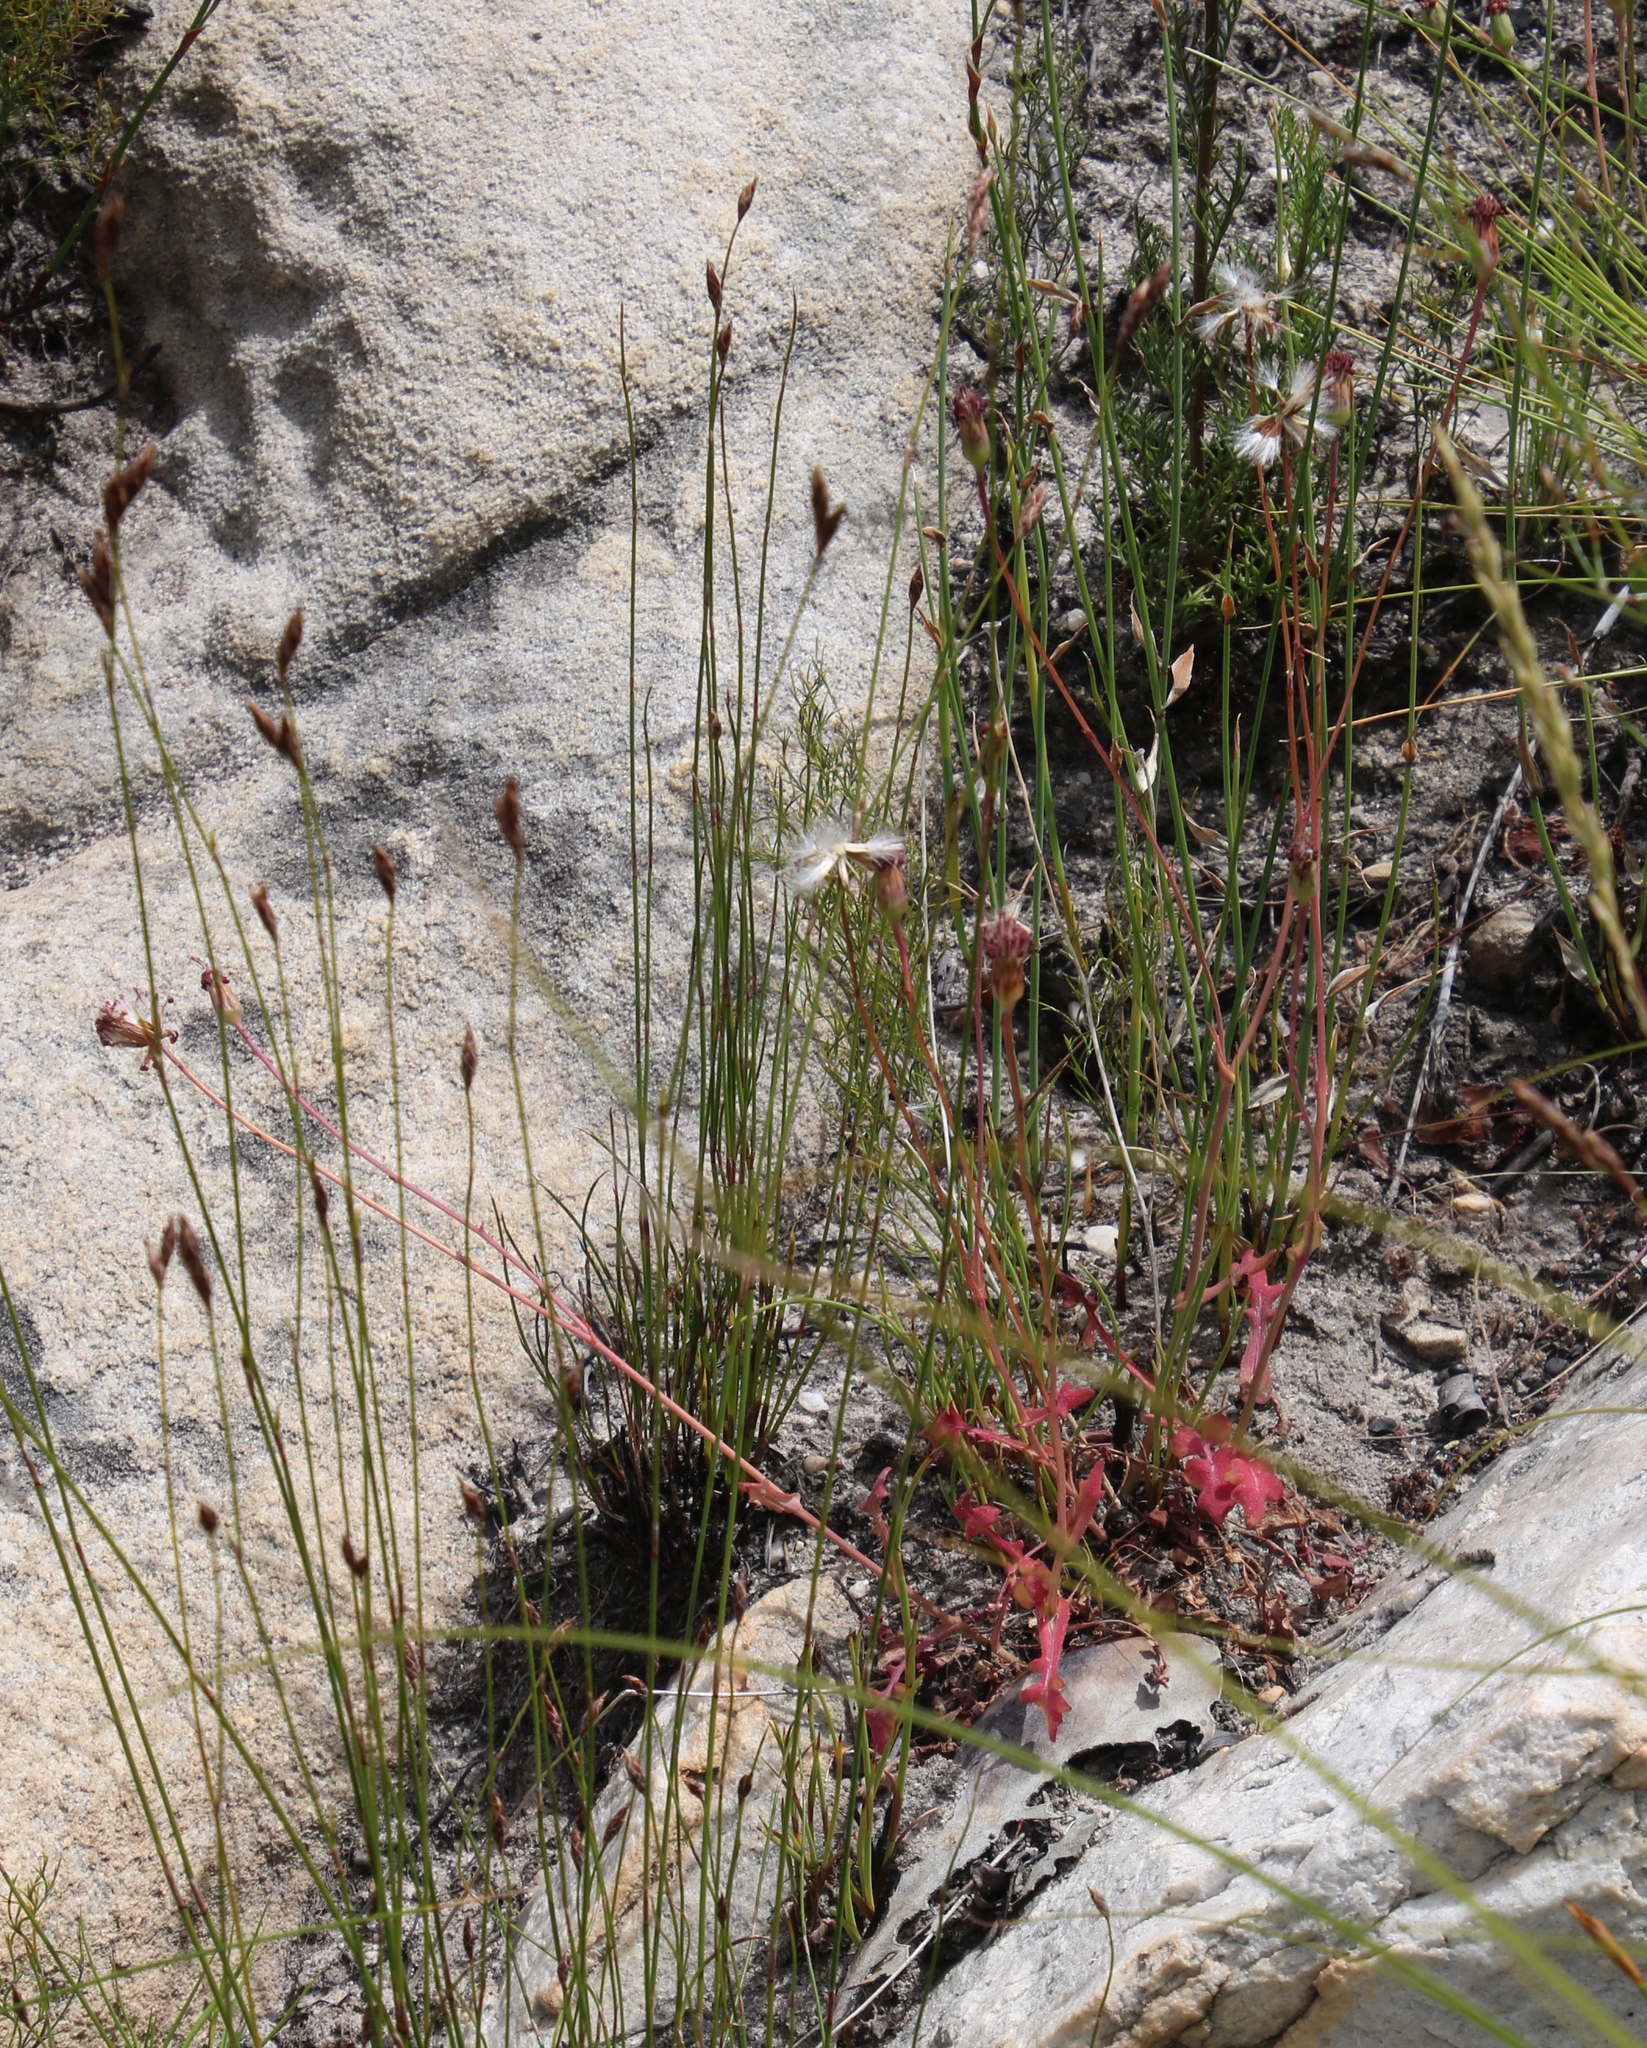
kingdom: Plantae
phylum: Tracheophyta
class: Magnoliopsida
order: Asterales
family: Asteraceae
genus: Senecio
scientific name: Senecio hastifolius
